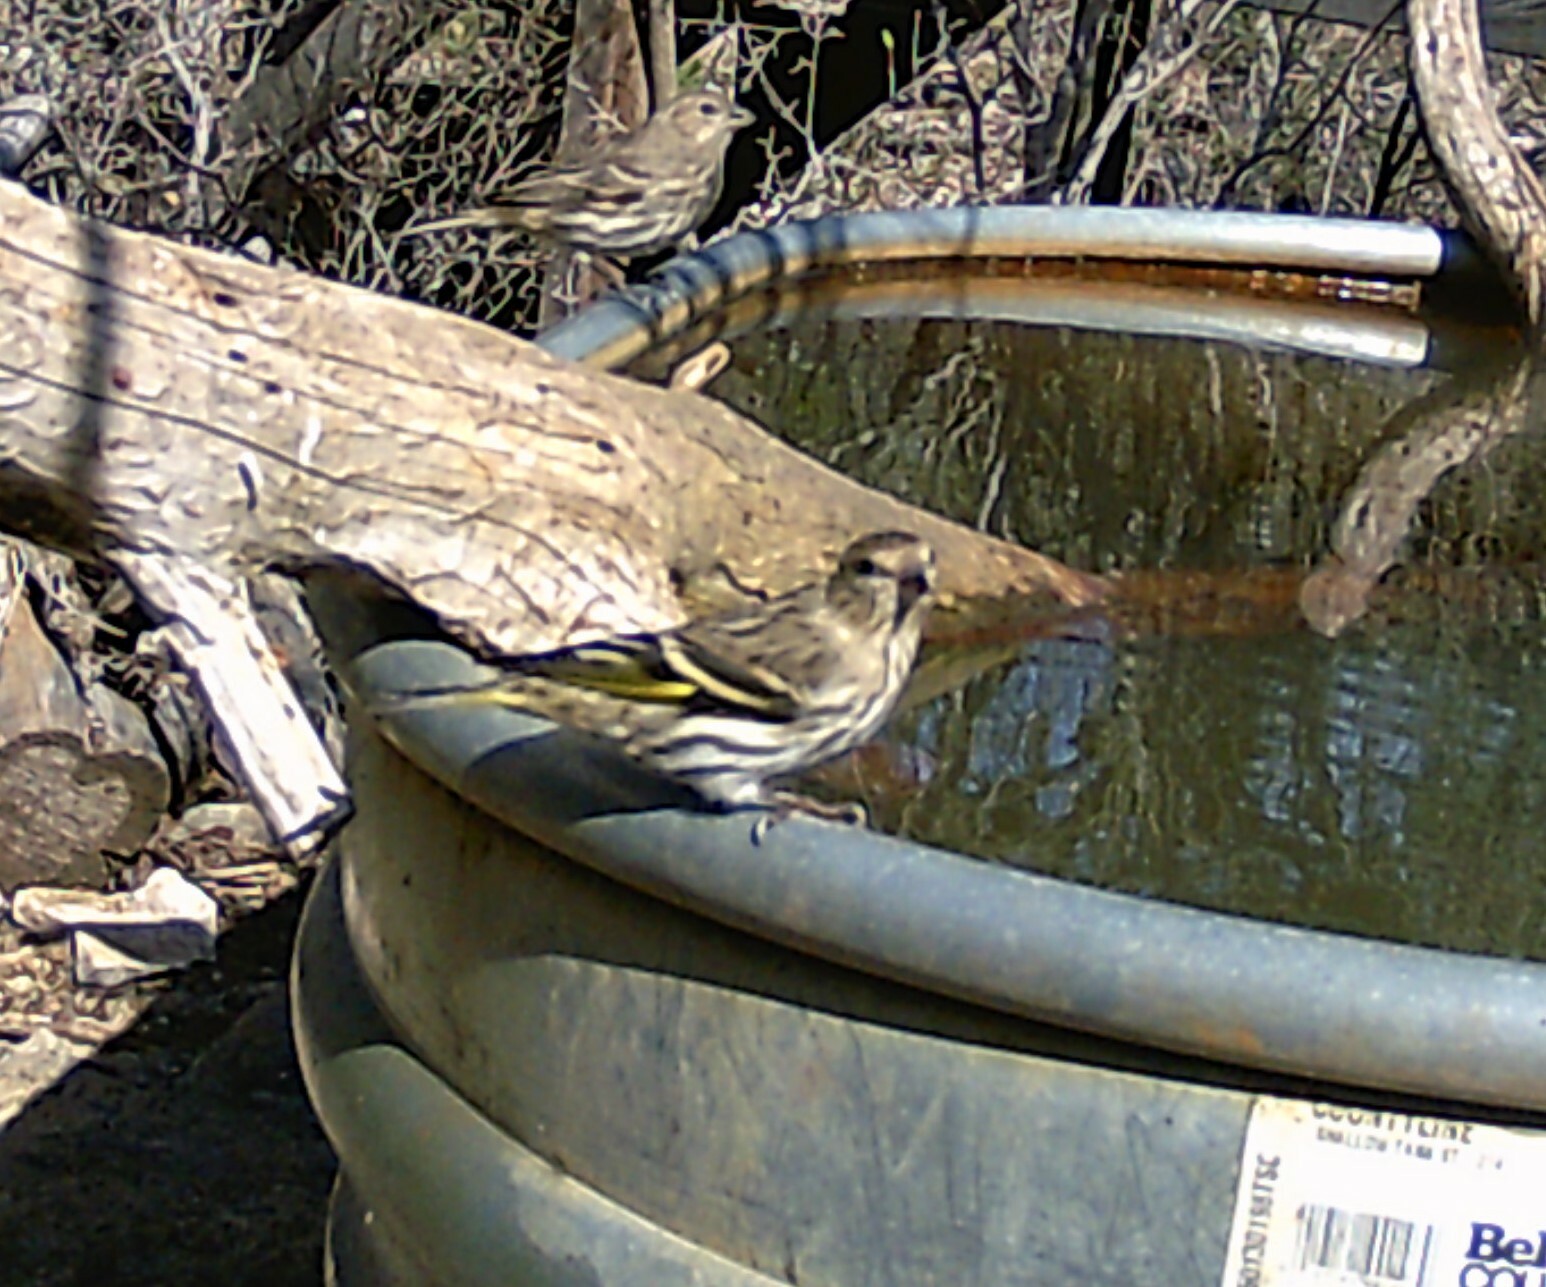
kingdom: Animalia
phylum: Chordata
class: Aves
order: Passeriformes
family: Fringillidae
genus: Spinus
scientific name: Spinus pinus
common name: Pine siskin
